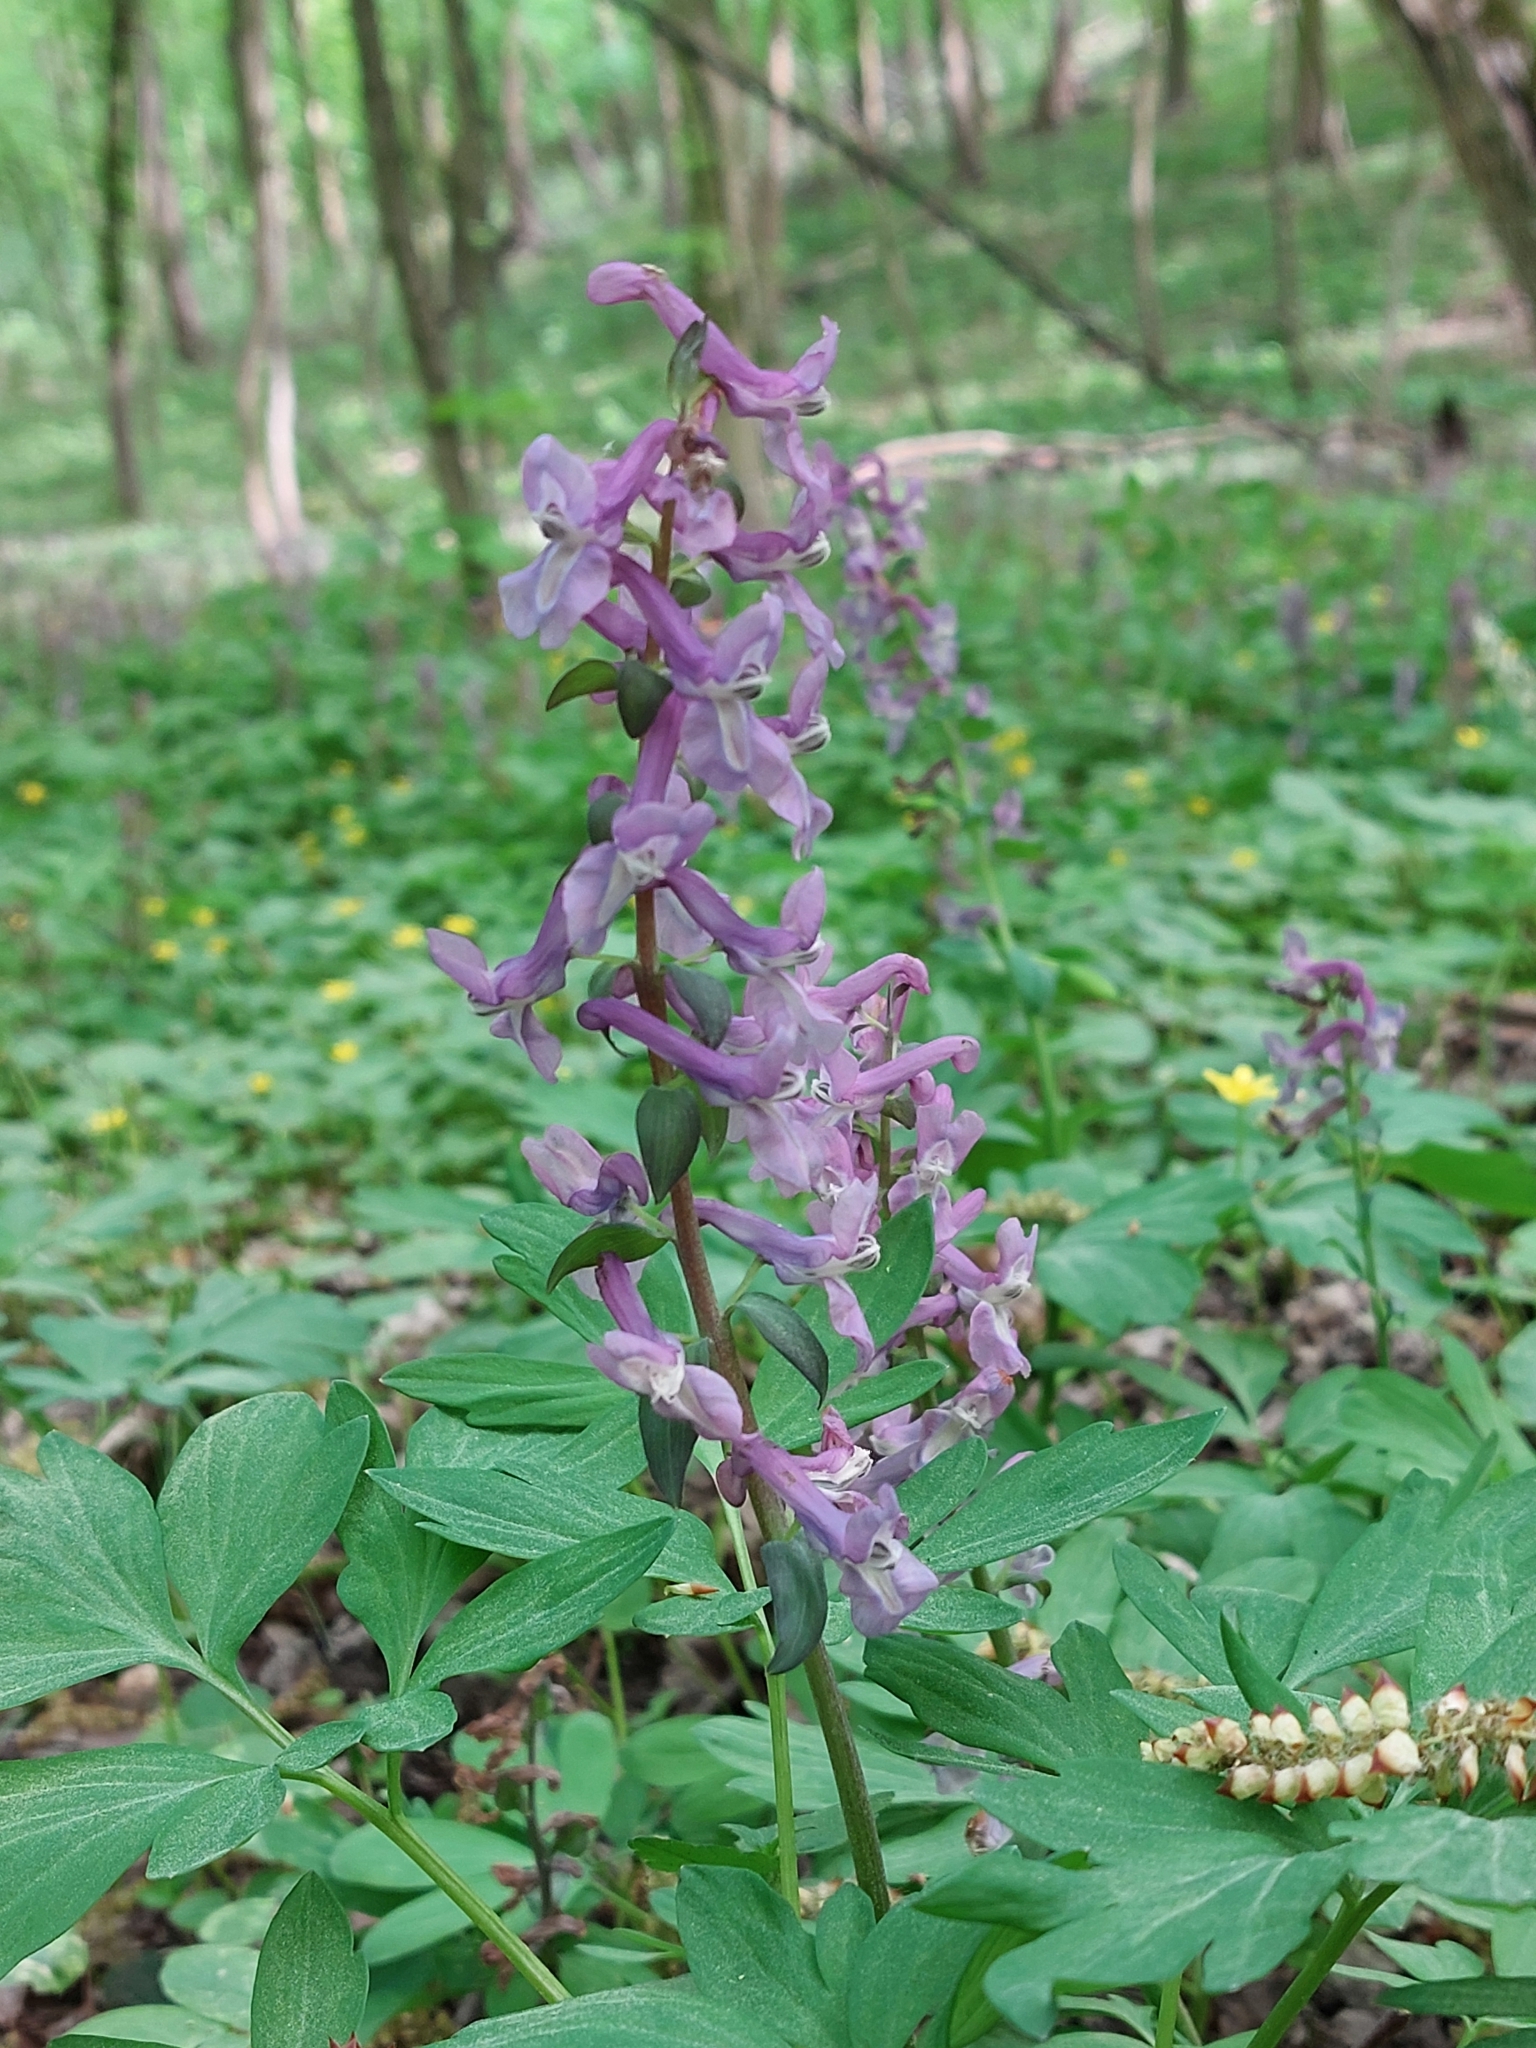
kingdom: Plantae
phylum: Tracheophyta
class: Magnoliopsida
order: Ranunculales
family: Papaveraceae
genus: Corydalis
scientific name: Corydalis cava
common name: Hollowroot
